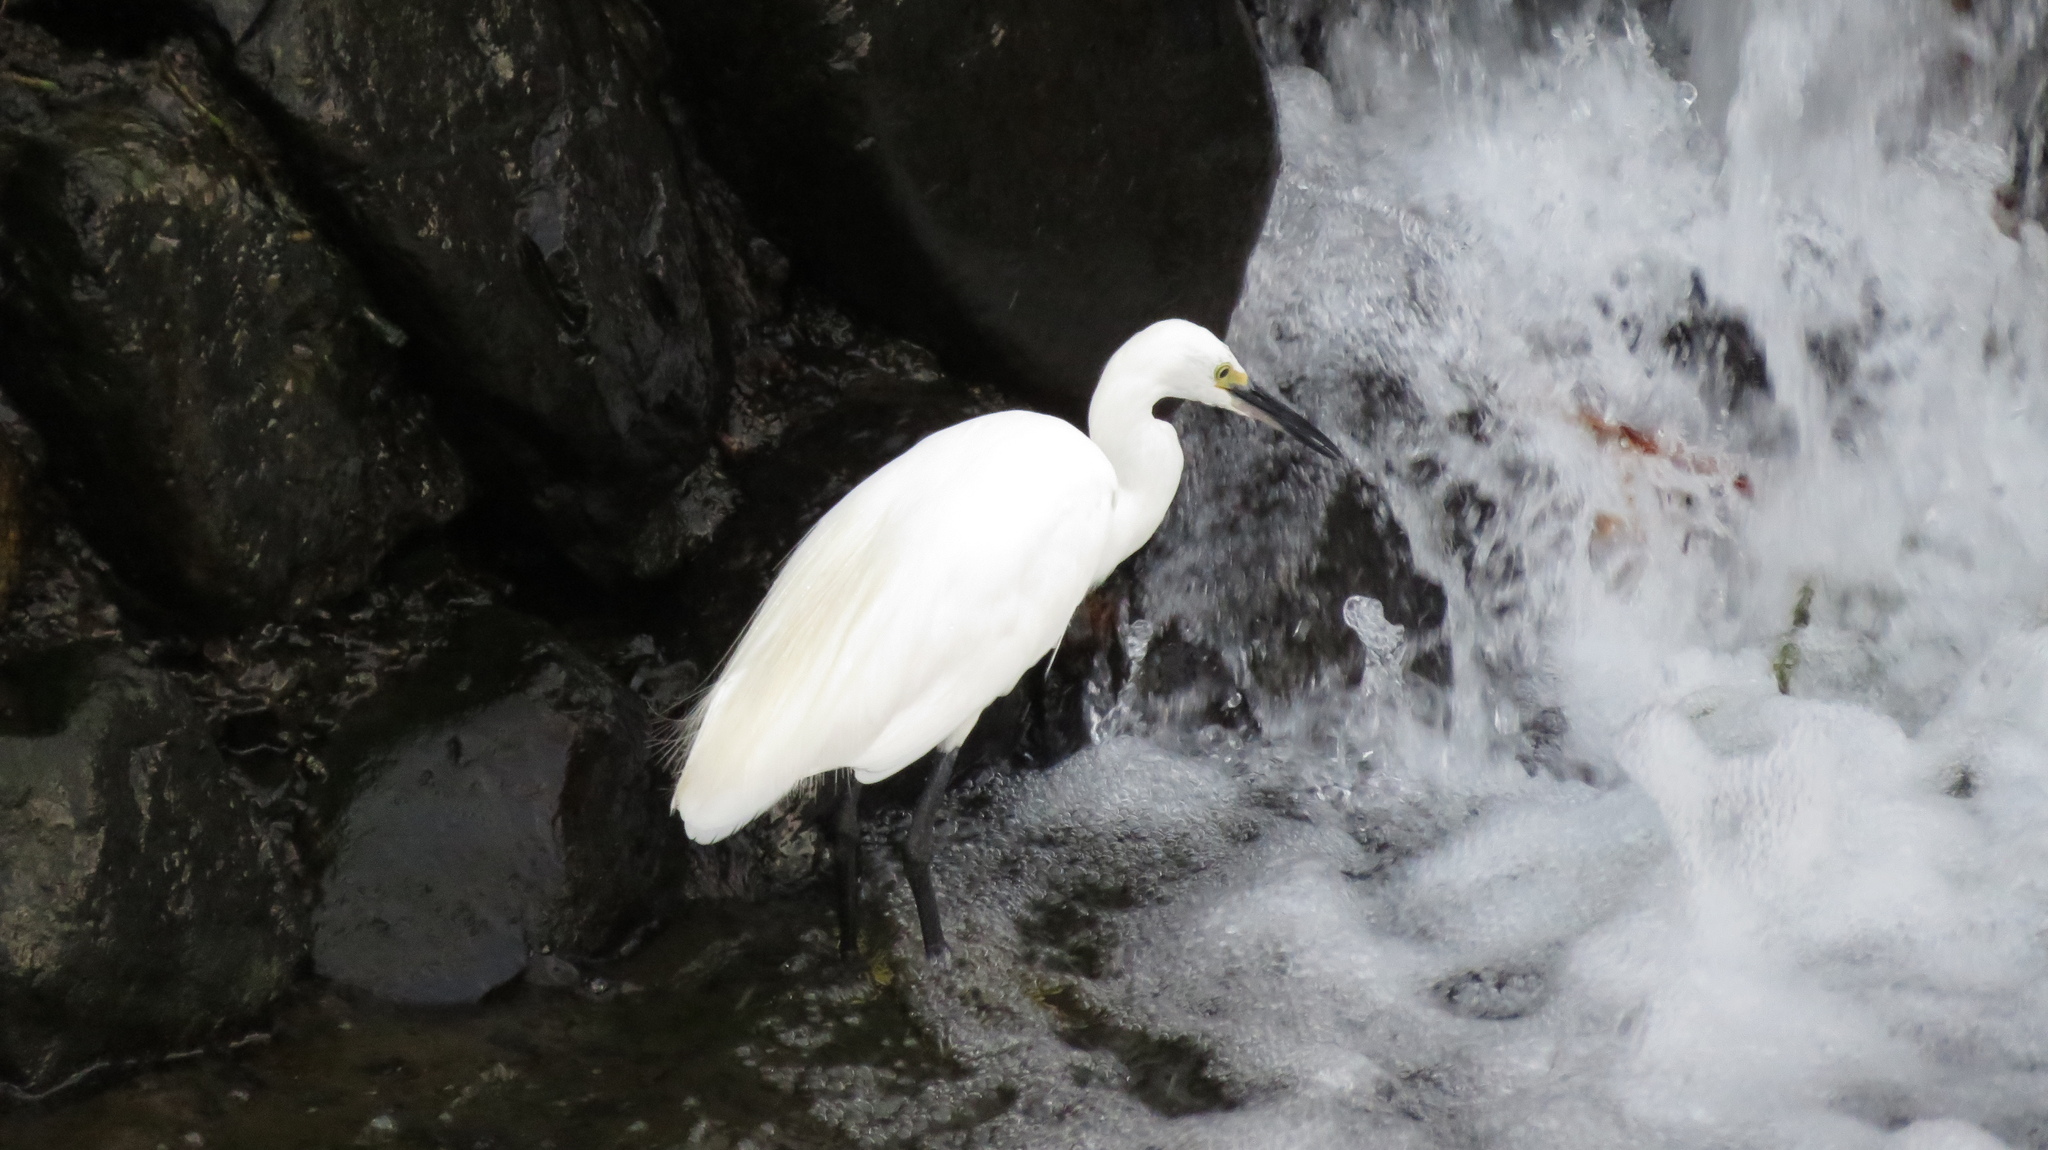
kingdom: Animalia
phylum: Chordata
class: Aves
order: Pelecaniformes
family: Ardeidae
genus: Egretta
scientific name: Egretta garzetta
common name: Little egret
